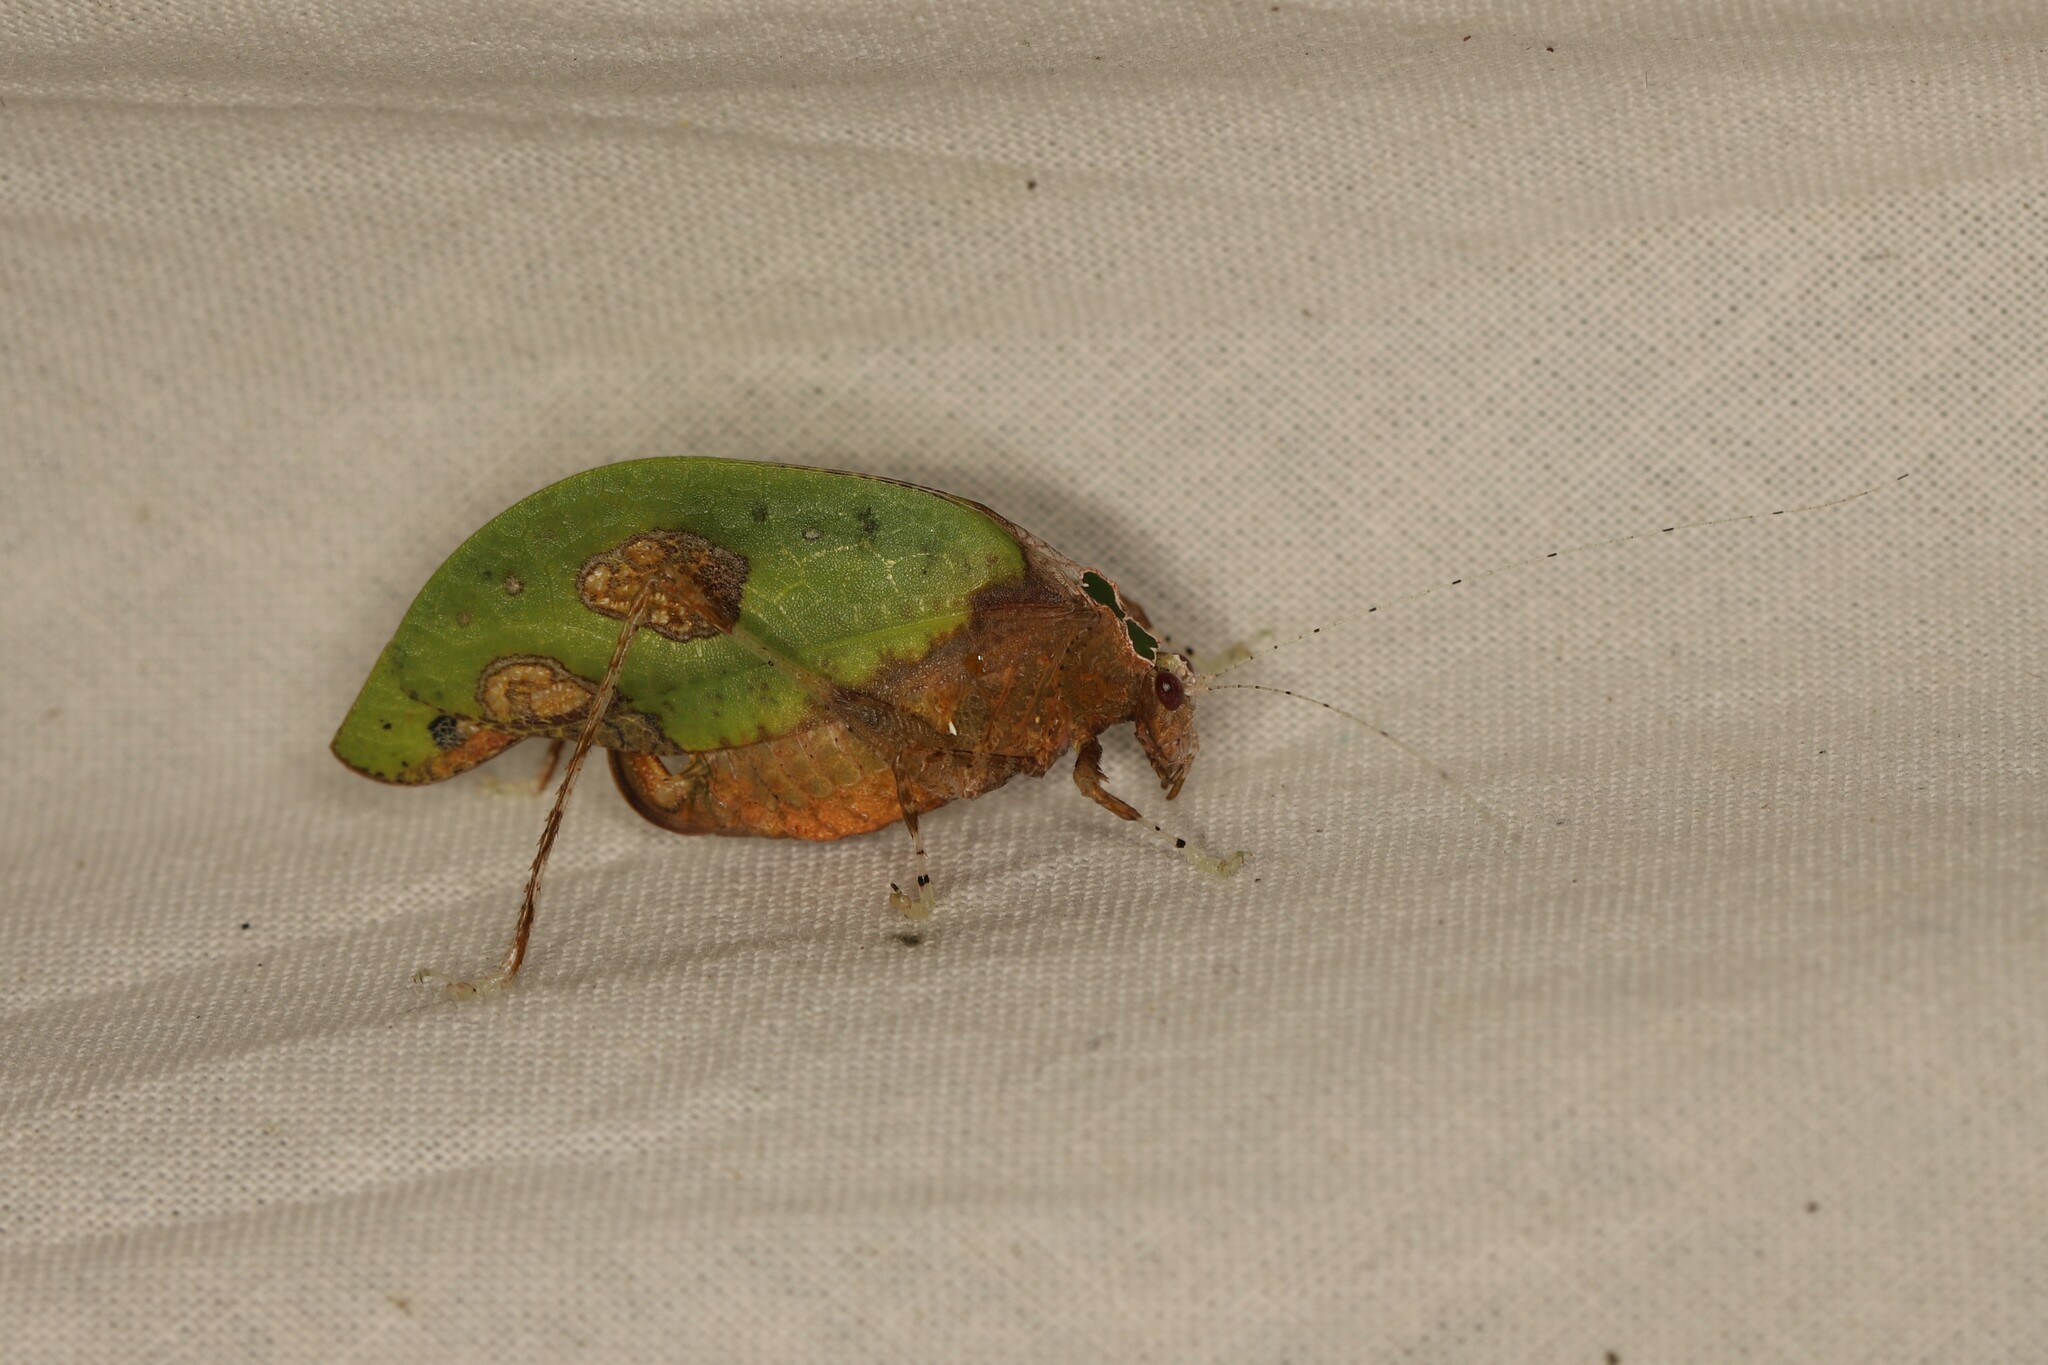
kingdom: Animalia
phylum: Arthropoda
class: Insecta
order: Orthoptera
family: Tettigoniidae
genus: Pycnopalpa
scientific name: Pycnopalpa bicordata
